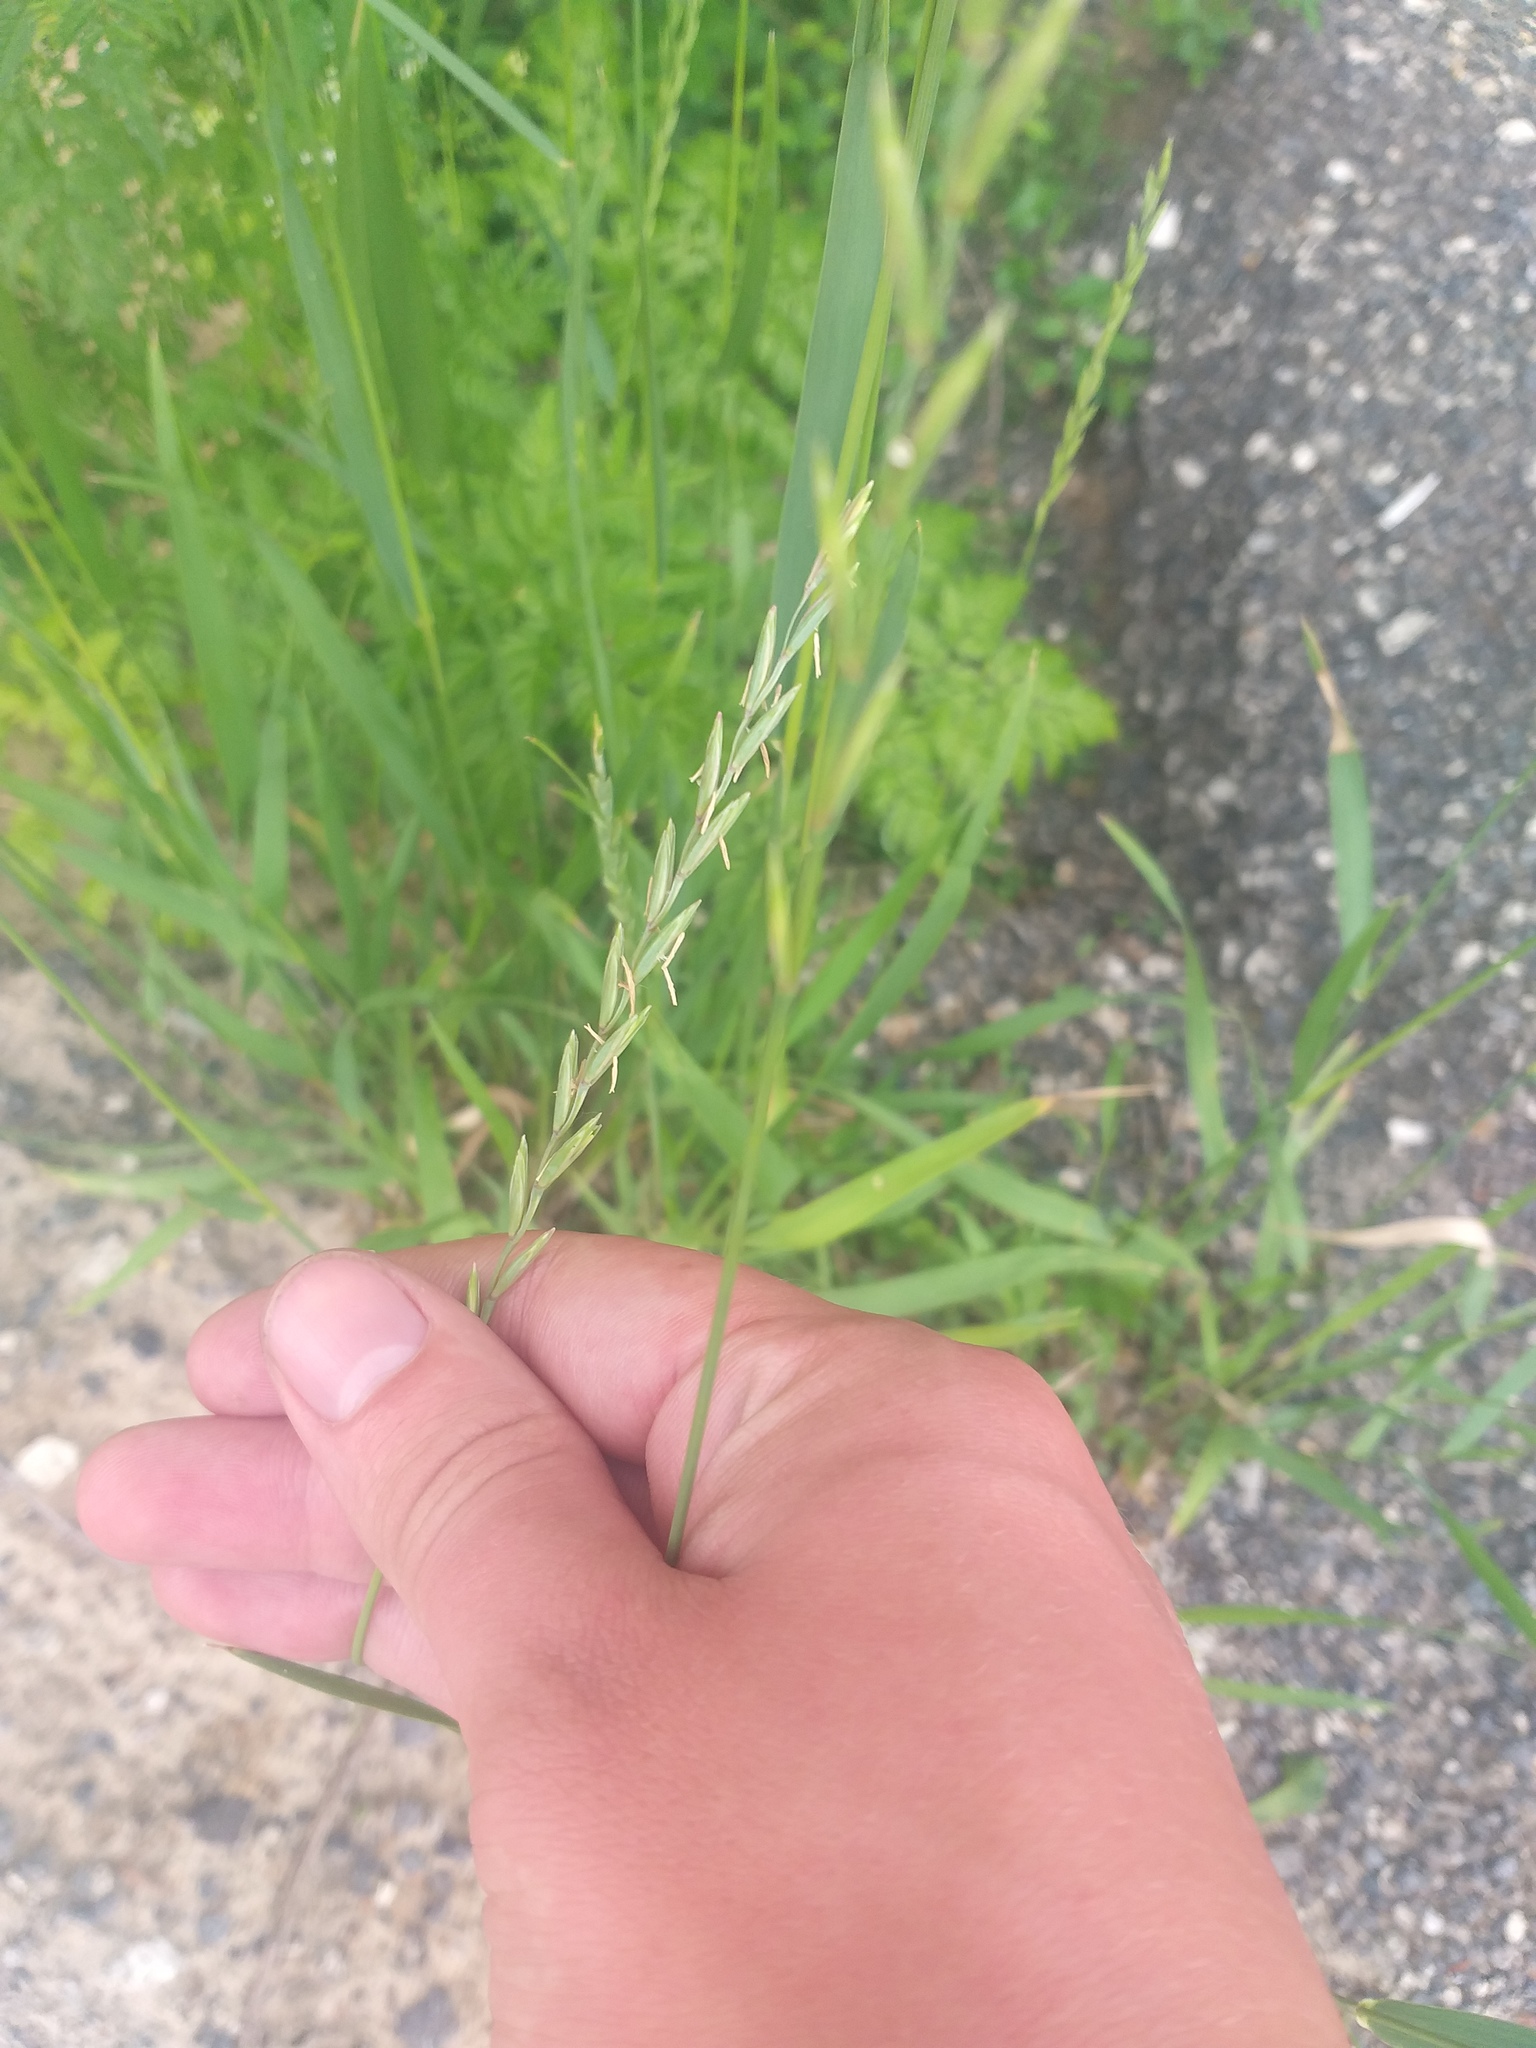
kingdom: Plantae
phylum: Tracheophyta
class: Liliopsida
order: Poales
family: Poaceae
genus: Elymus
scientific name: Elymus repens
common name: Quackgrass
